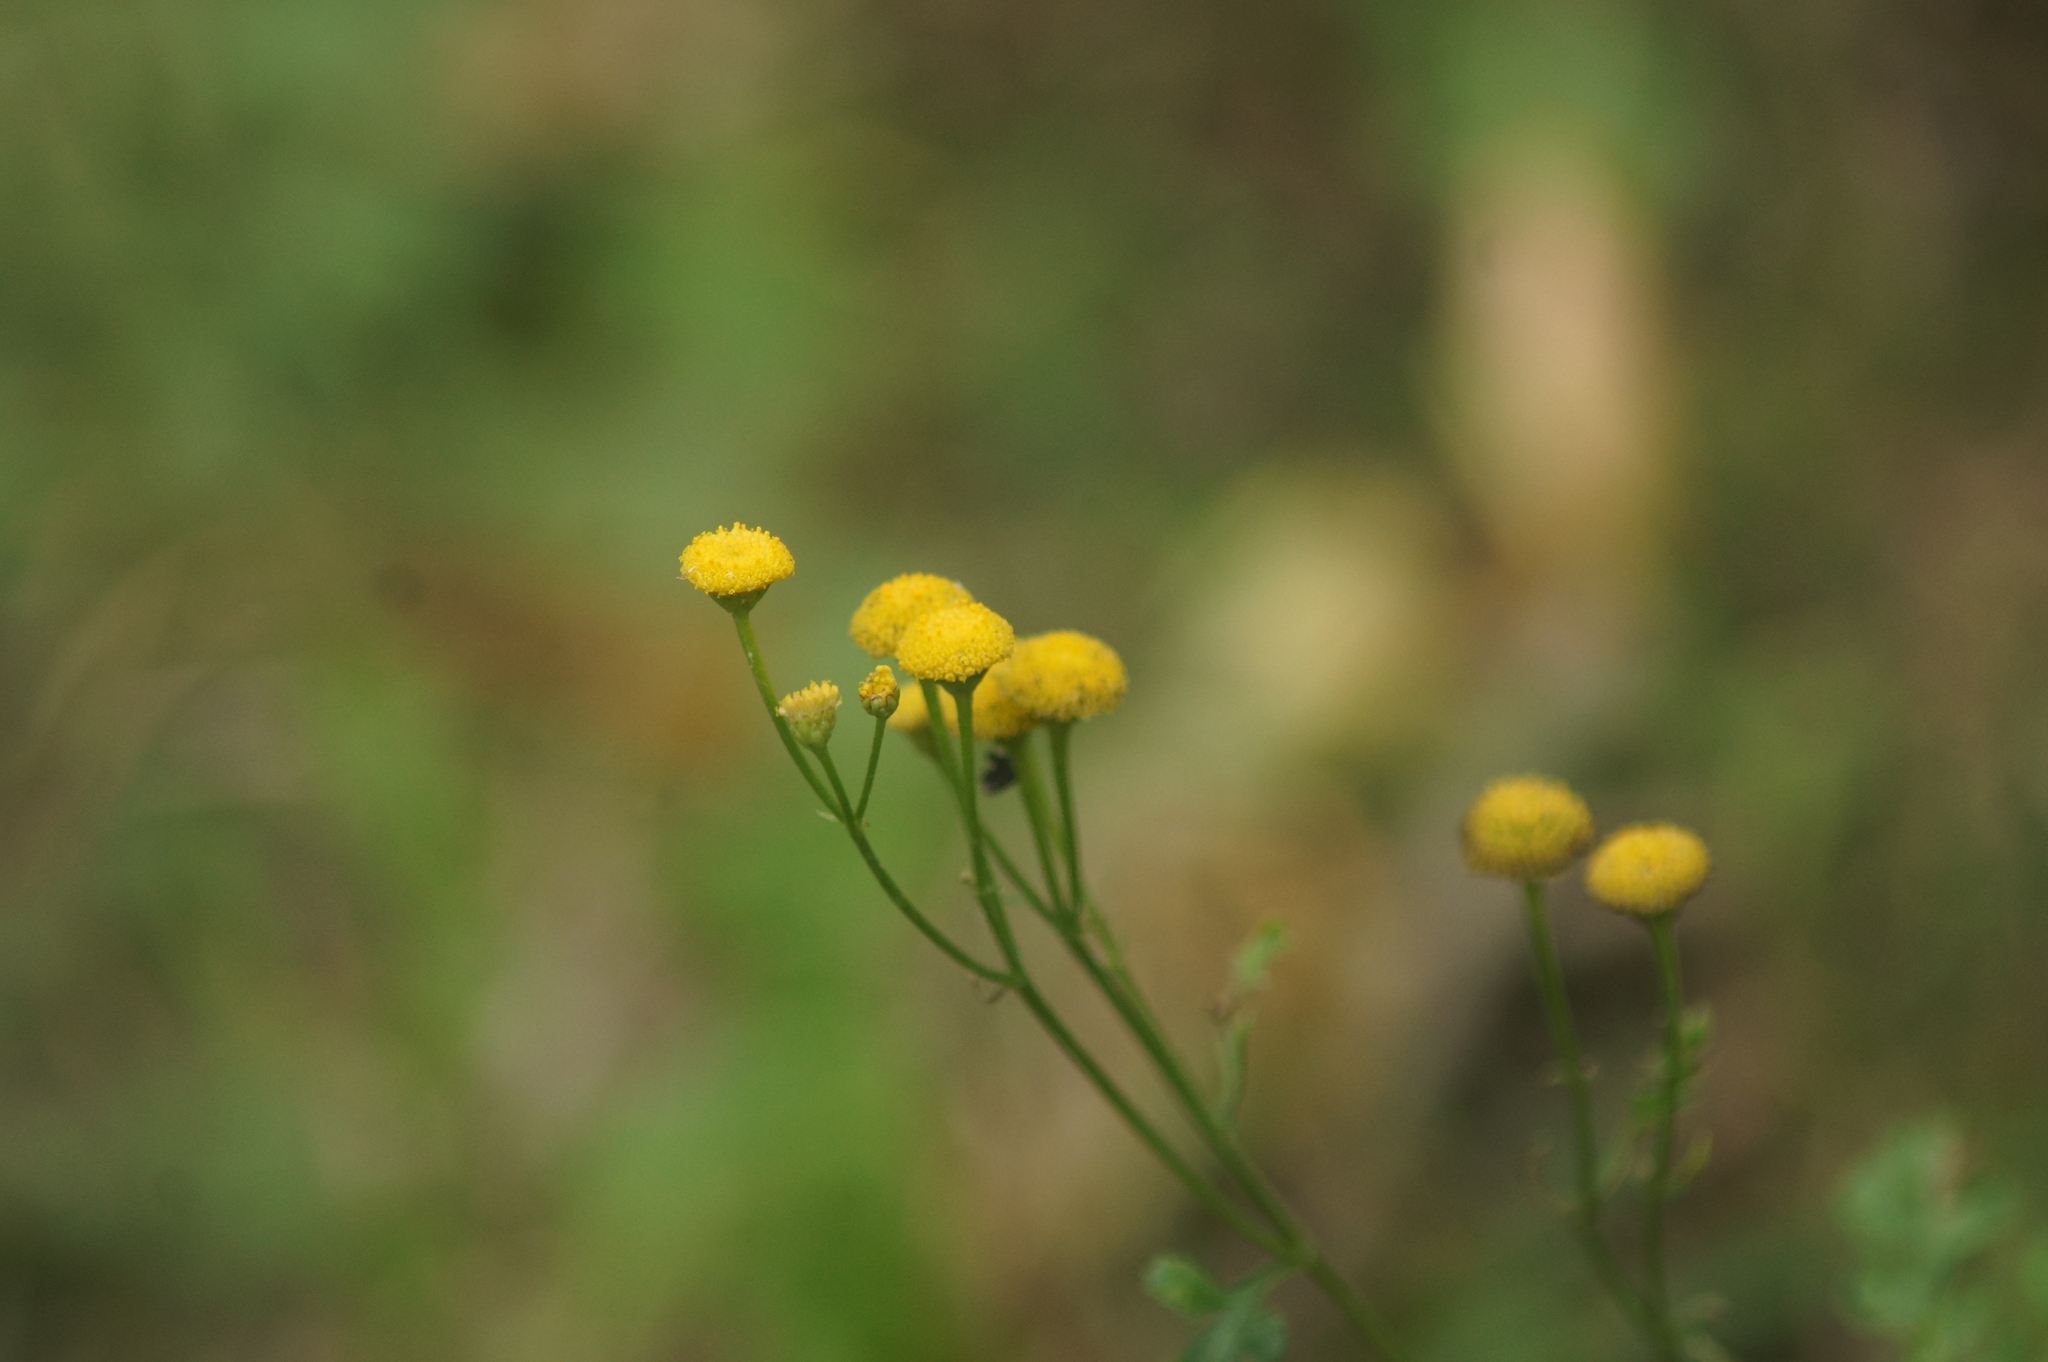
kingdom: Plantae
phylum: Tracheophyta
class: Magnoliopsida
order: Asterales
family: Asteraceae
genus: Tanacetum
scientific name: Tanacetum vulgare
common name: Common tansy
